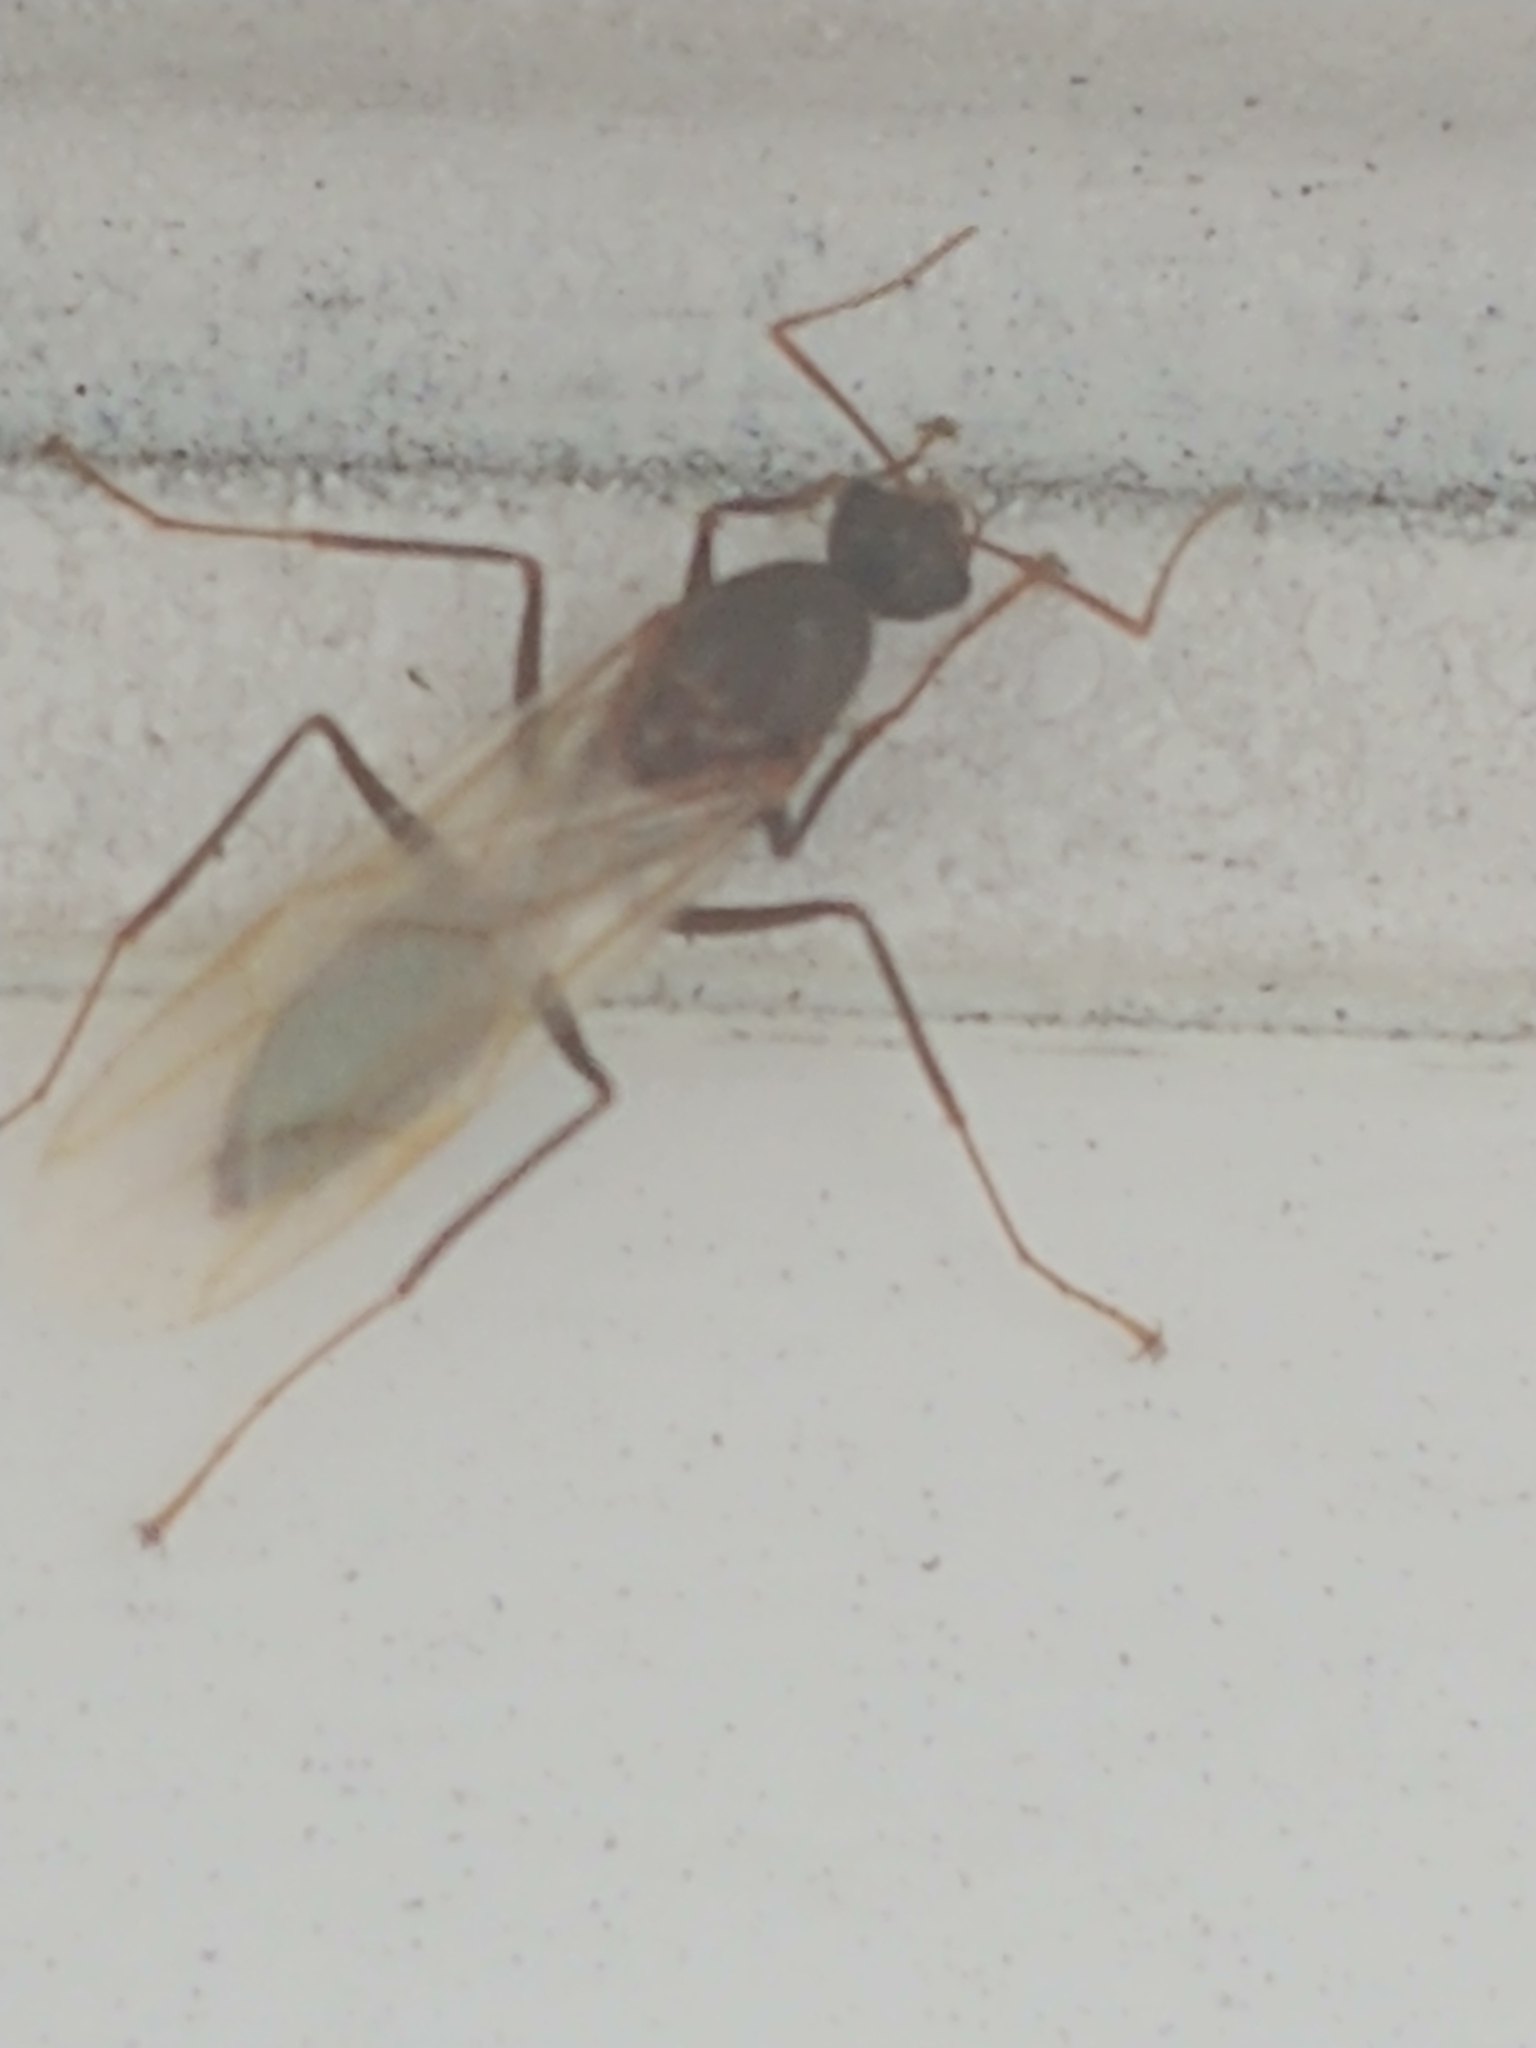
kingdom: Animalia
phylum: Arthropoda
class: Insecta
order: Hymenoptera
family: Formicidae
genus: Camponotus
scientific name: Camponotus floridanus
